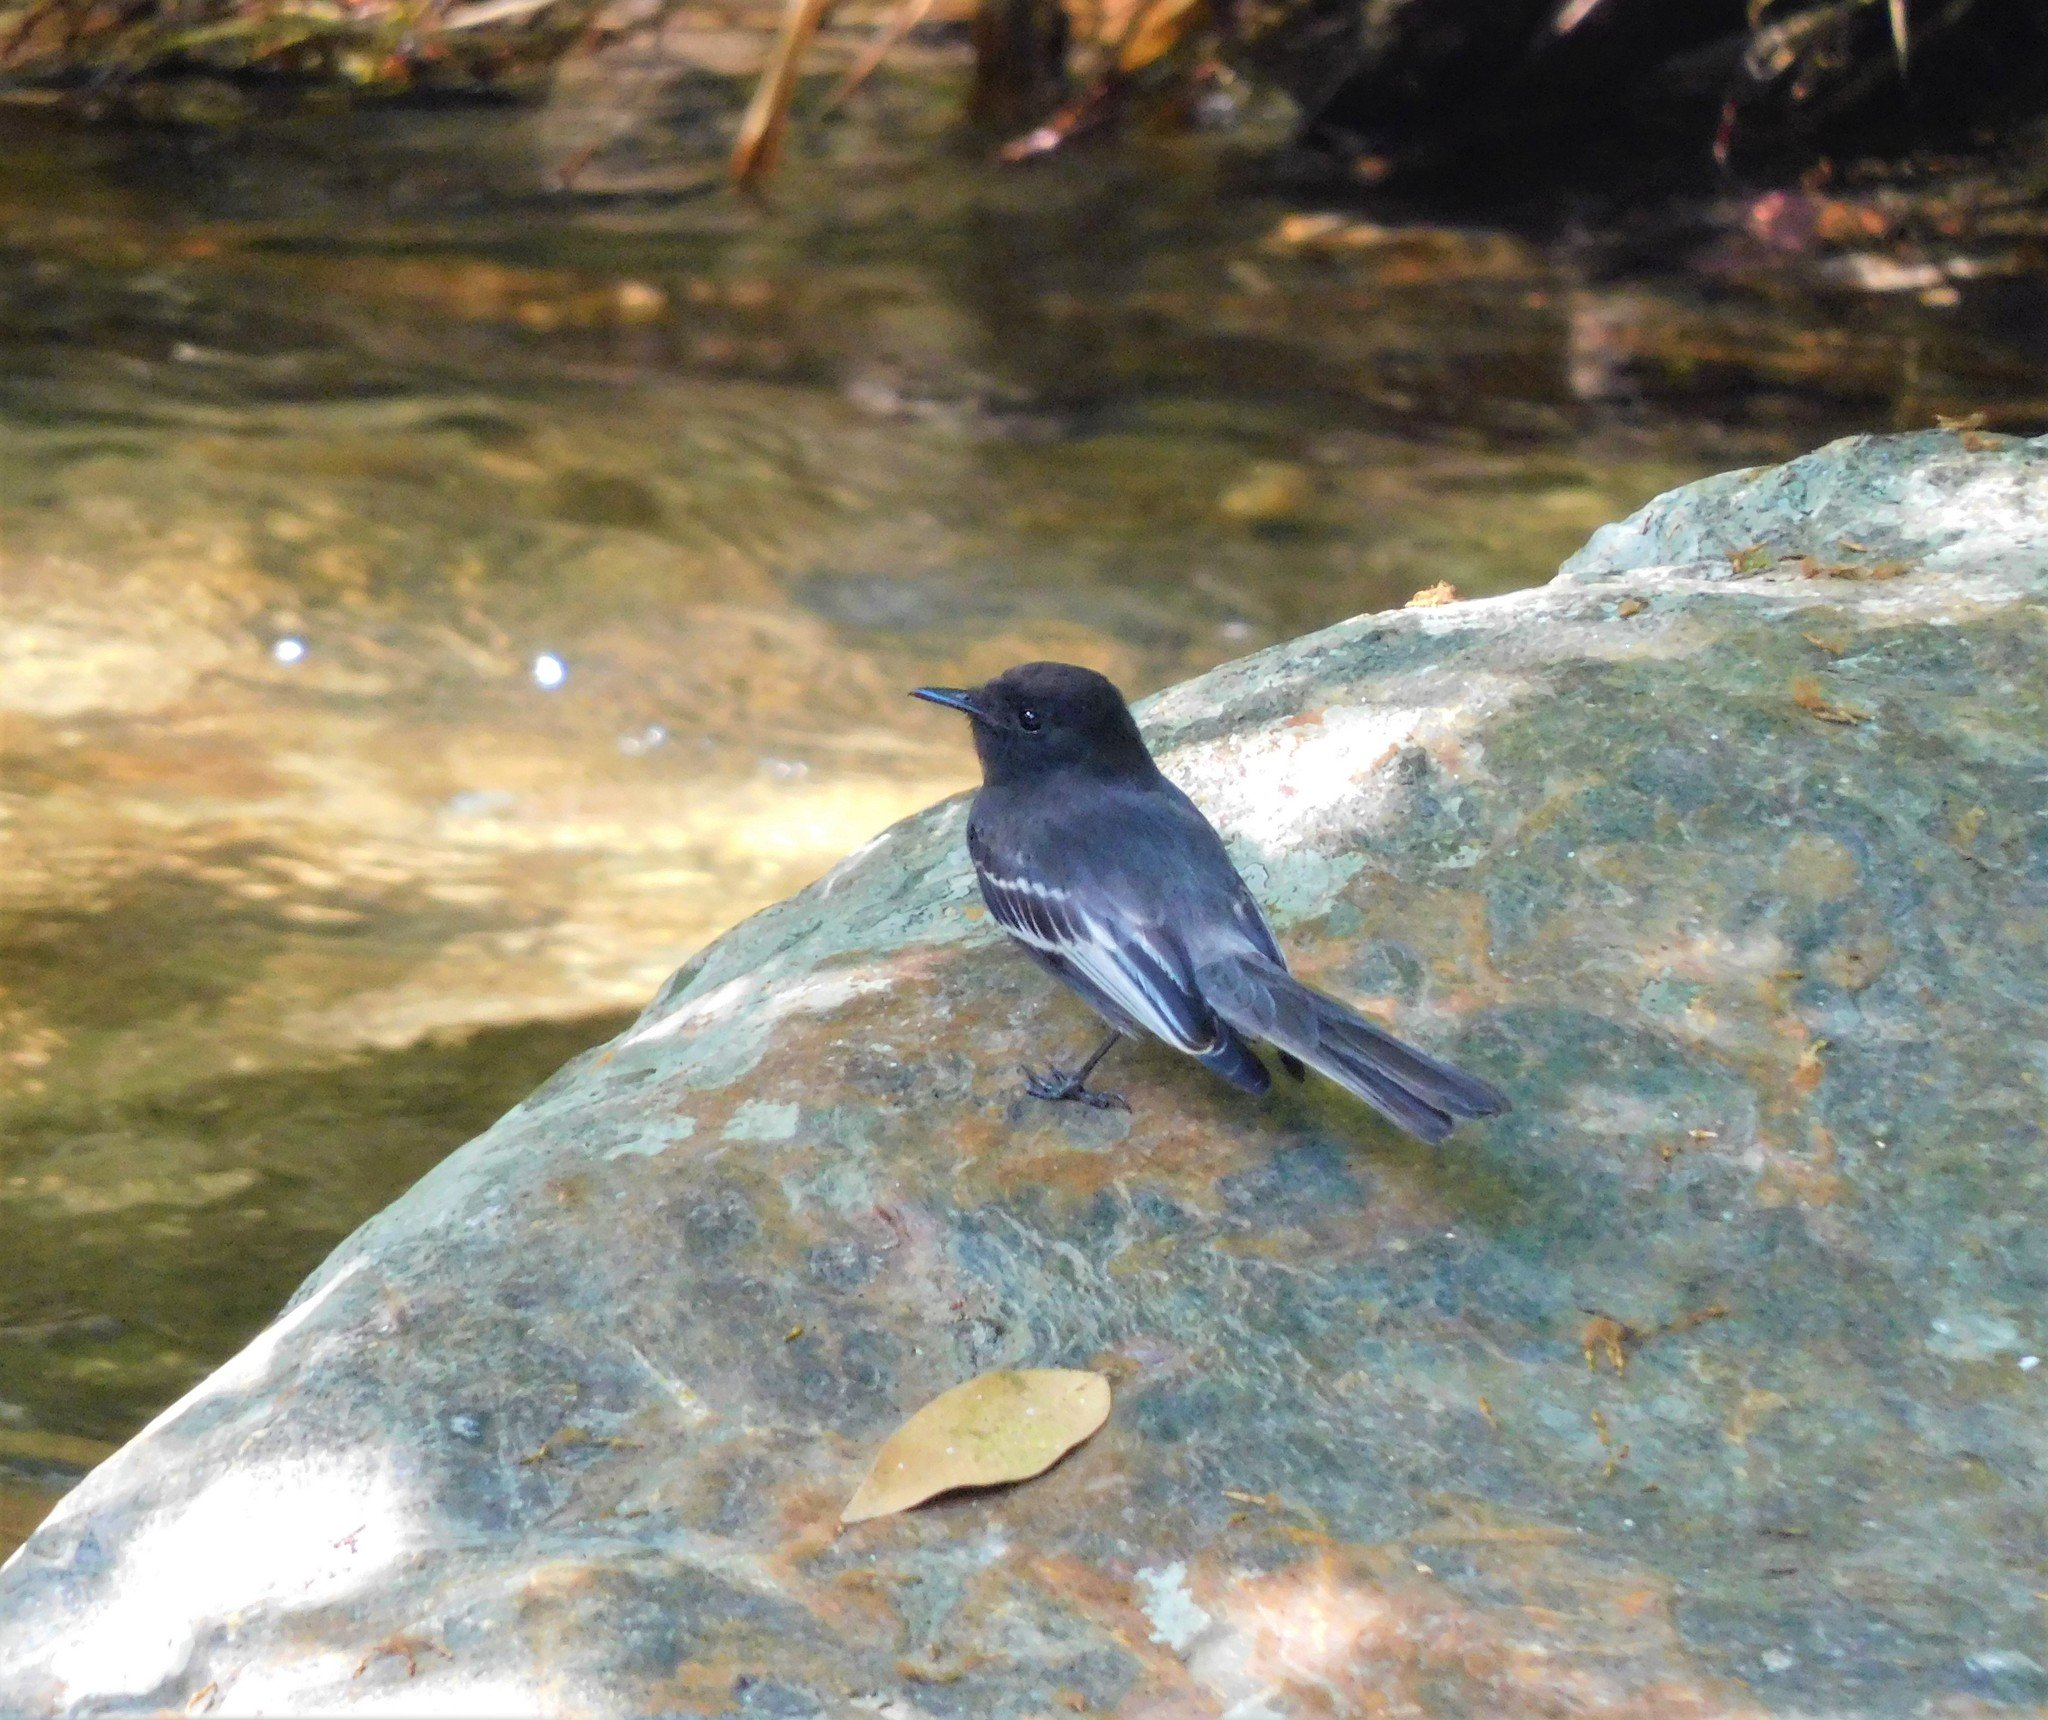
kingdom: Animalia
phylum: Chordata
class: Aves
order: Passeriformes
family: Tyrannidae
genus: Sayornis
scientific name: Sayornis nigricans
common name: Black phoebe
